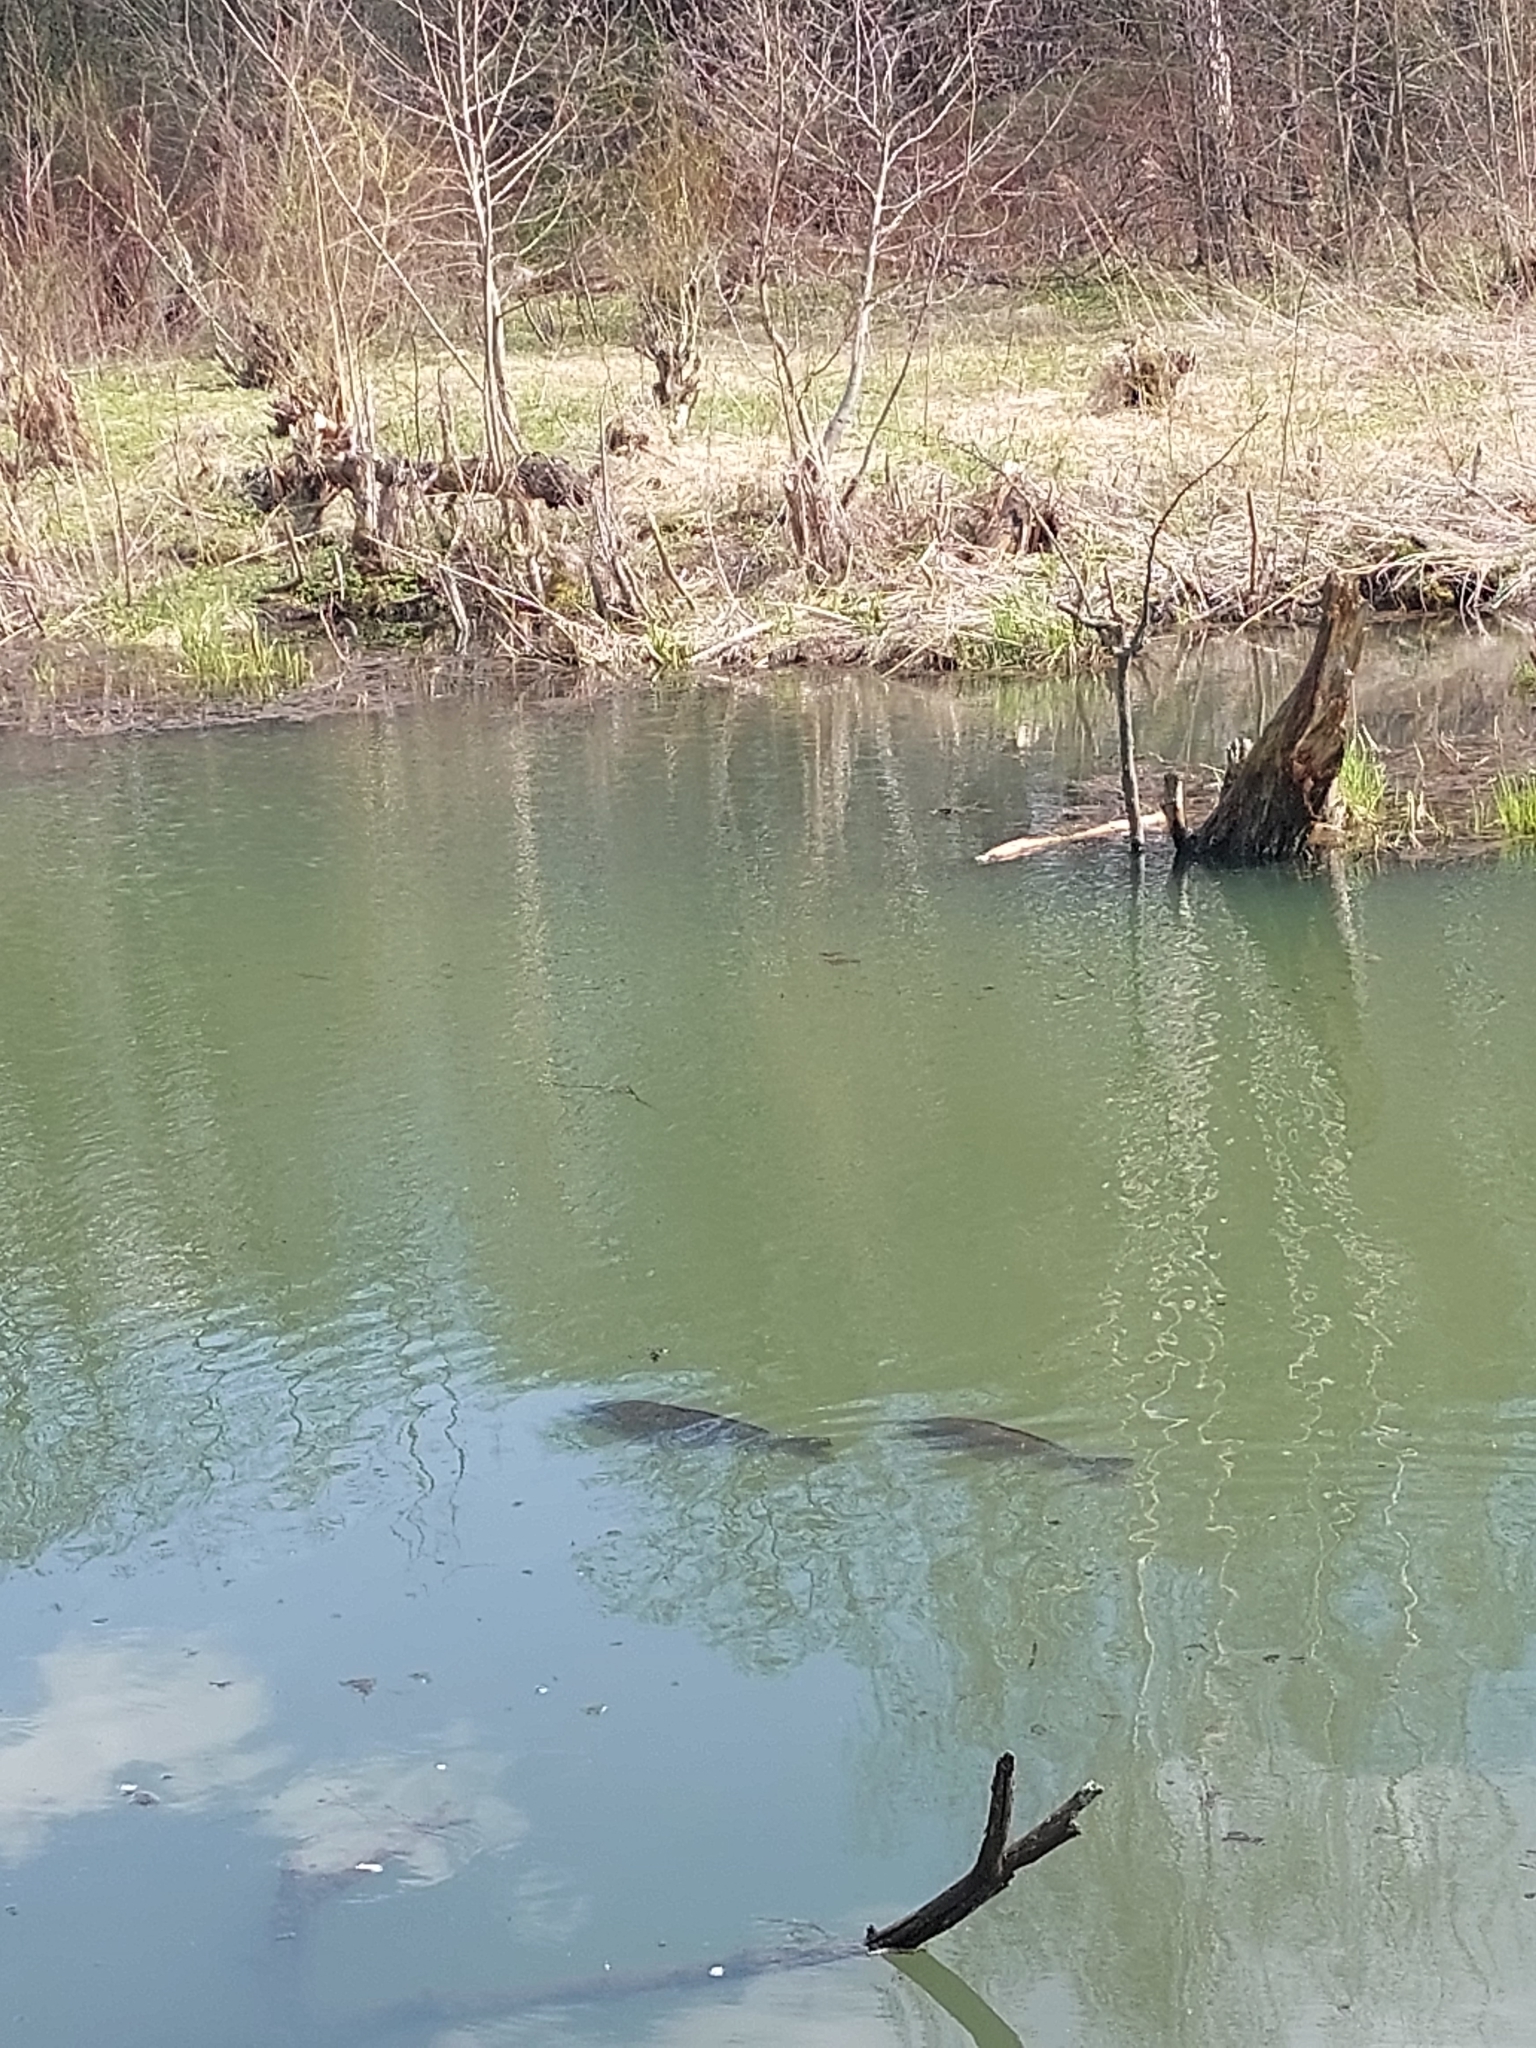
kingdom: Animalia
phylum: Chordata
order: Cypriniformes
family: Cyprinidae
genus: Cyprinus
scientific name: Cyprinus carpio
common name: Common carp
